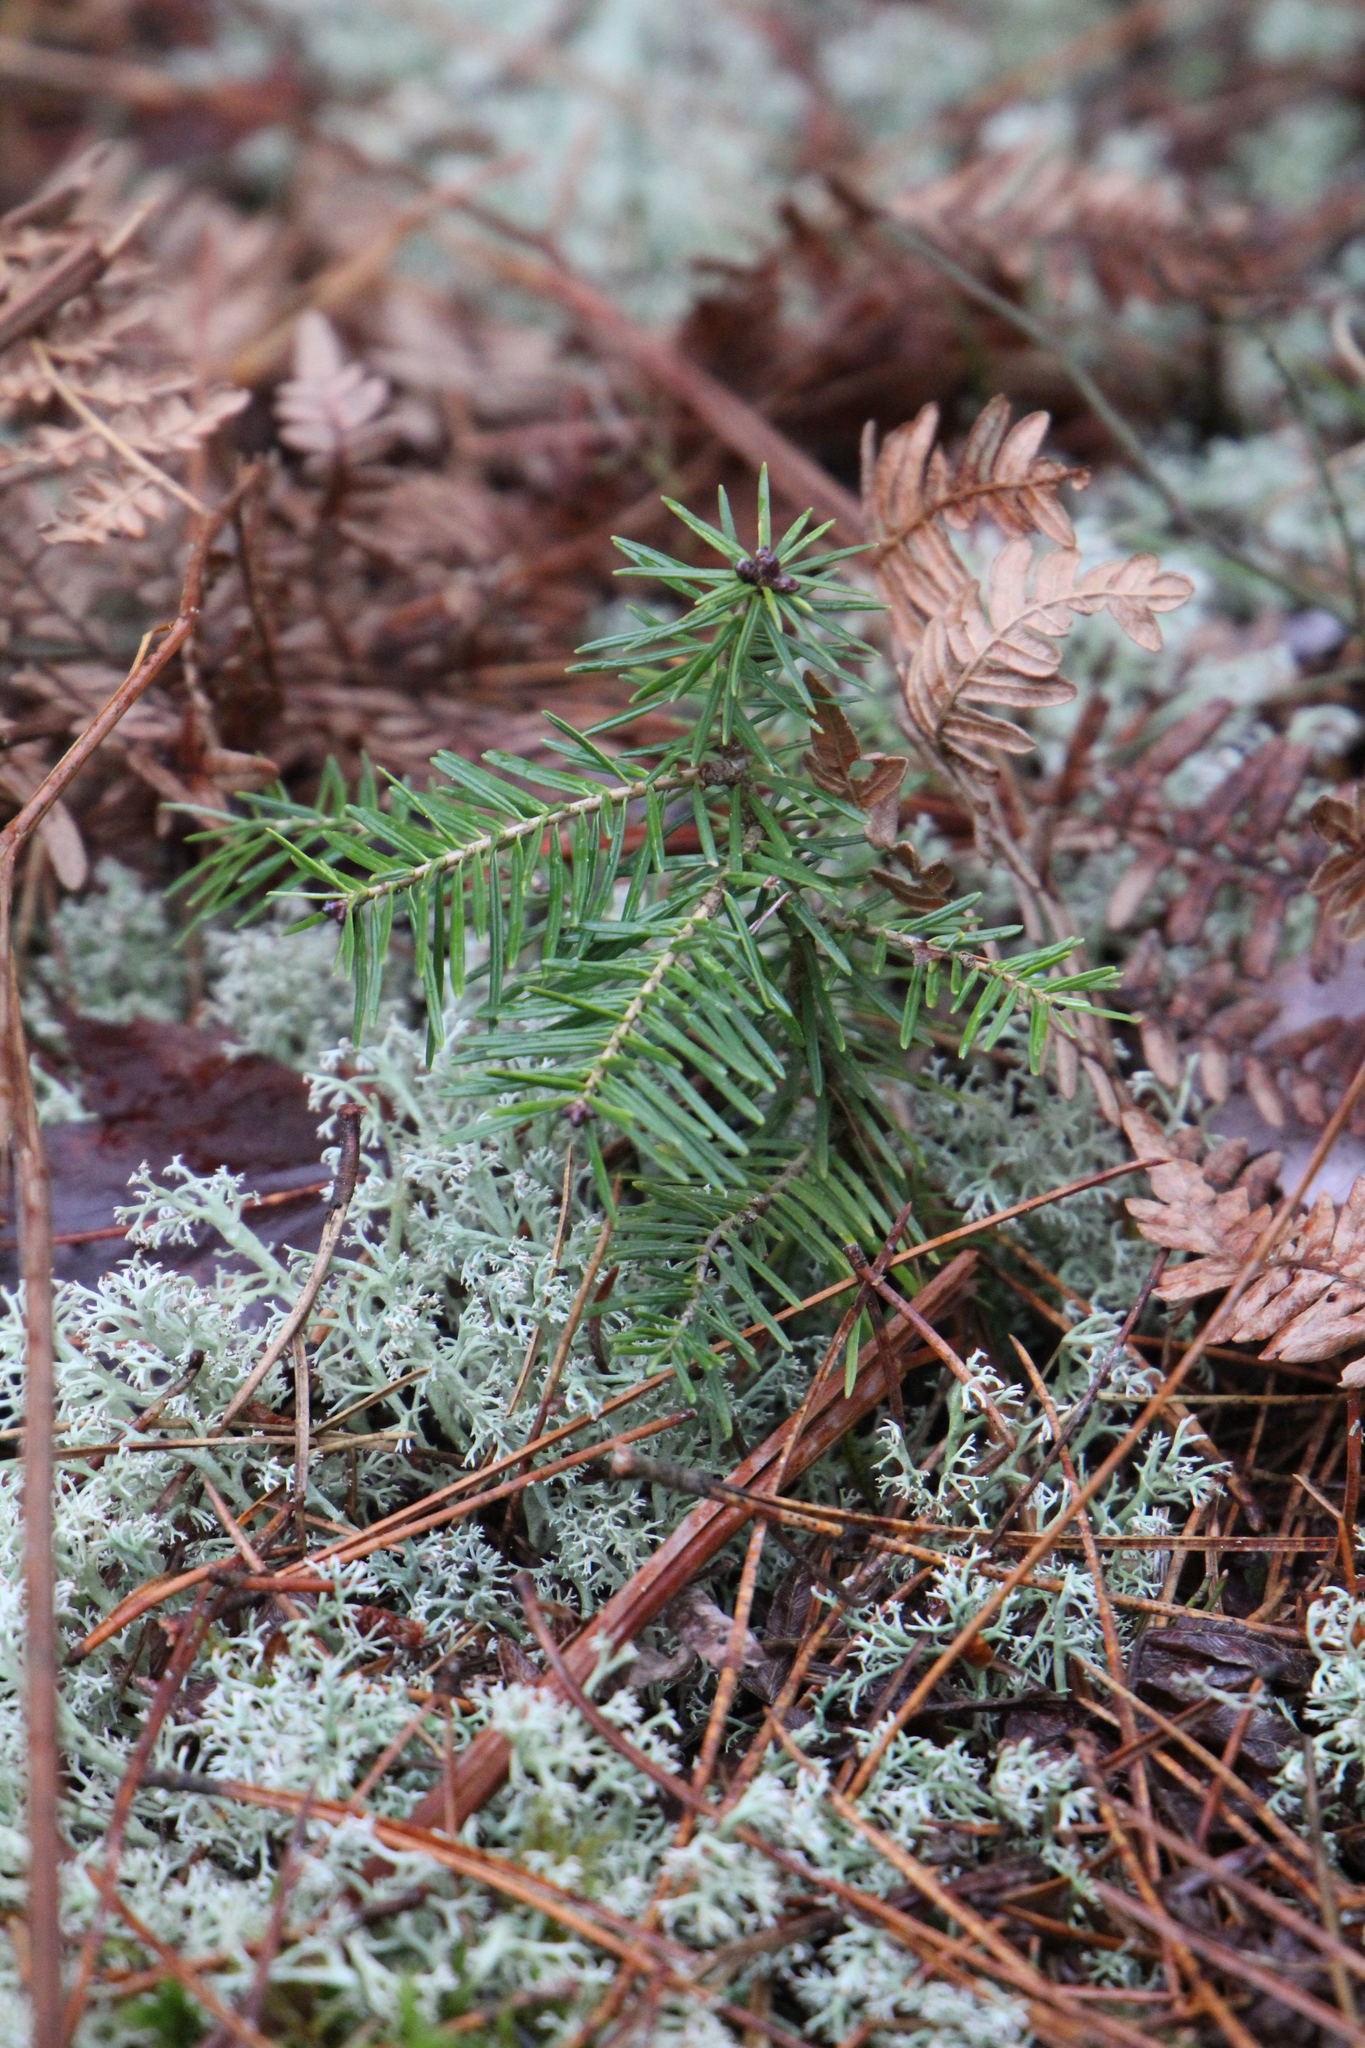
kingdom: Plantae
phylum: Tracheophyta
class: Pinopsida
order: Pinales
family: Pinaceae
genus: Abies
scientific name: Abies balsamea
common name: Balsam fir
